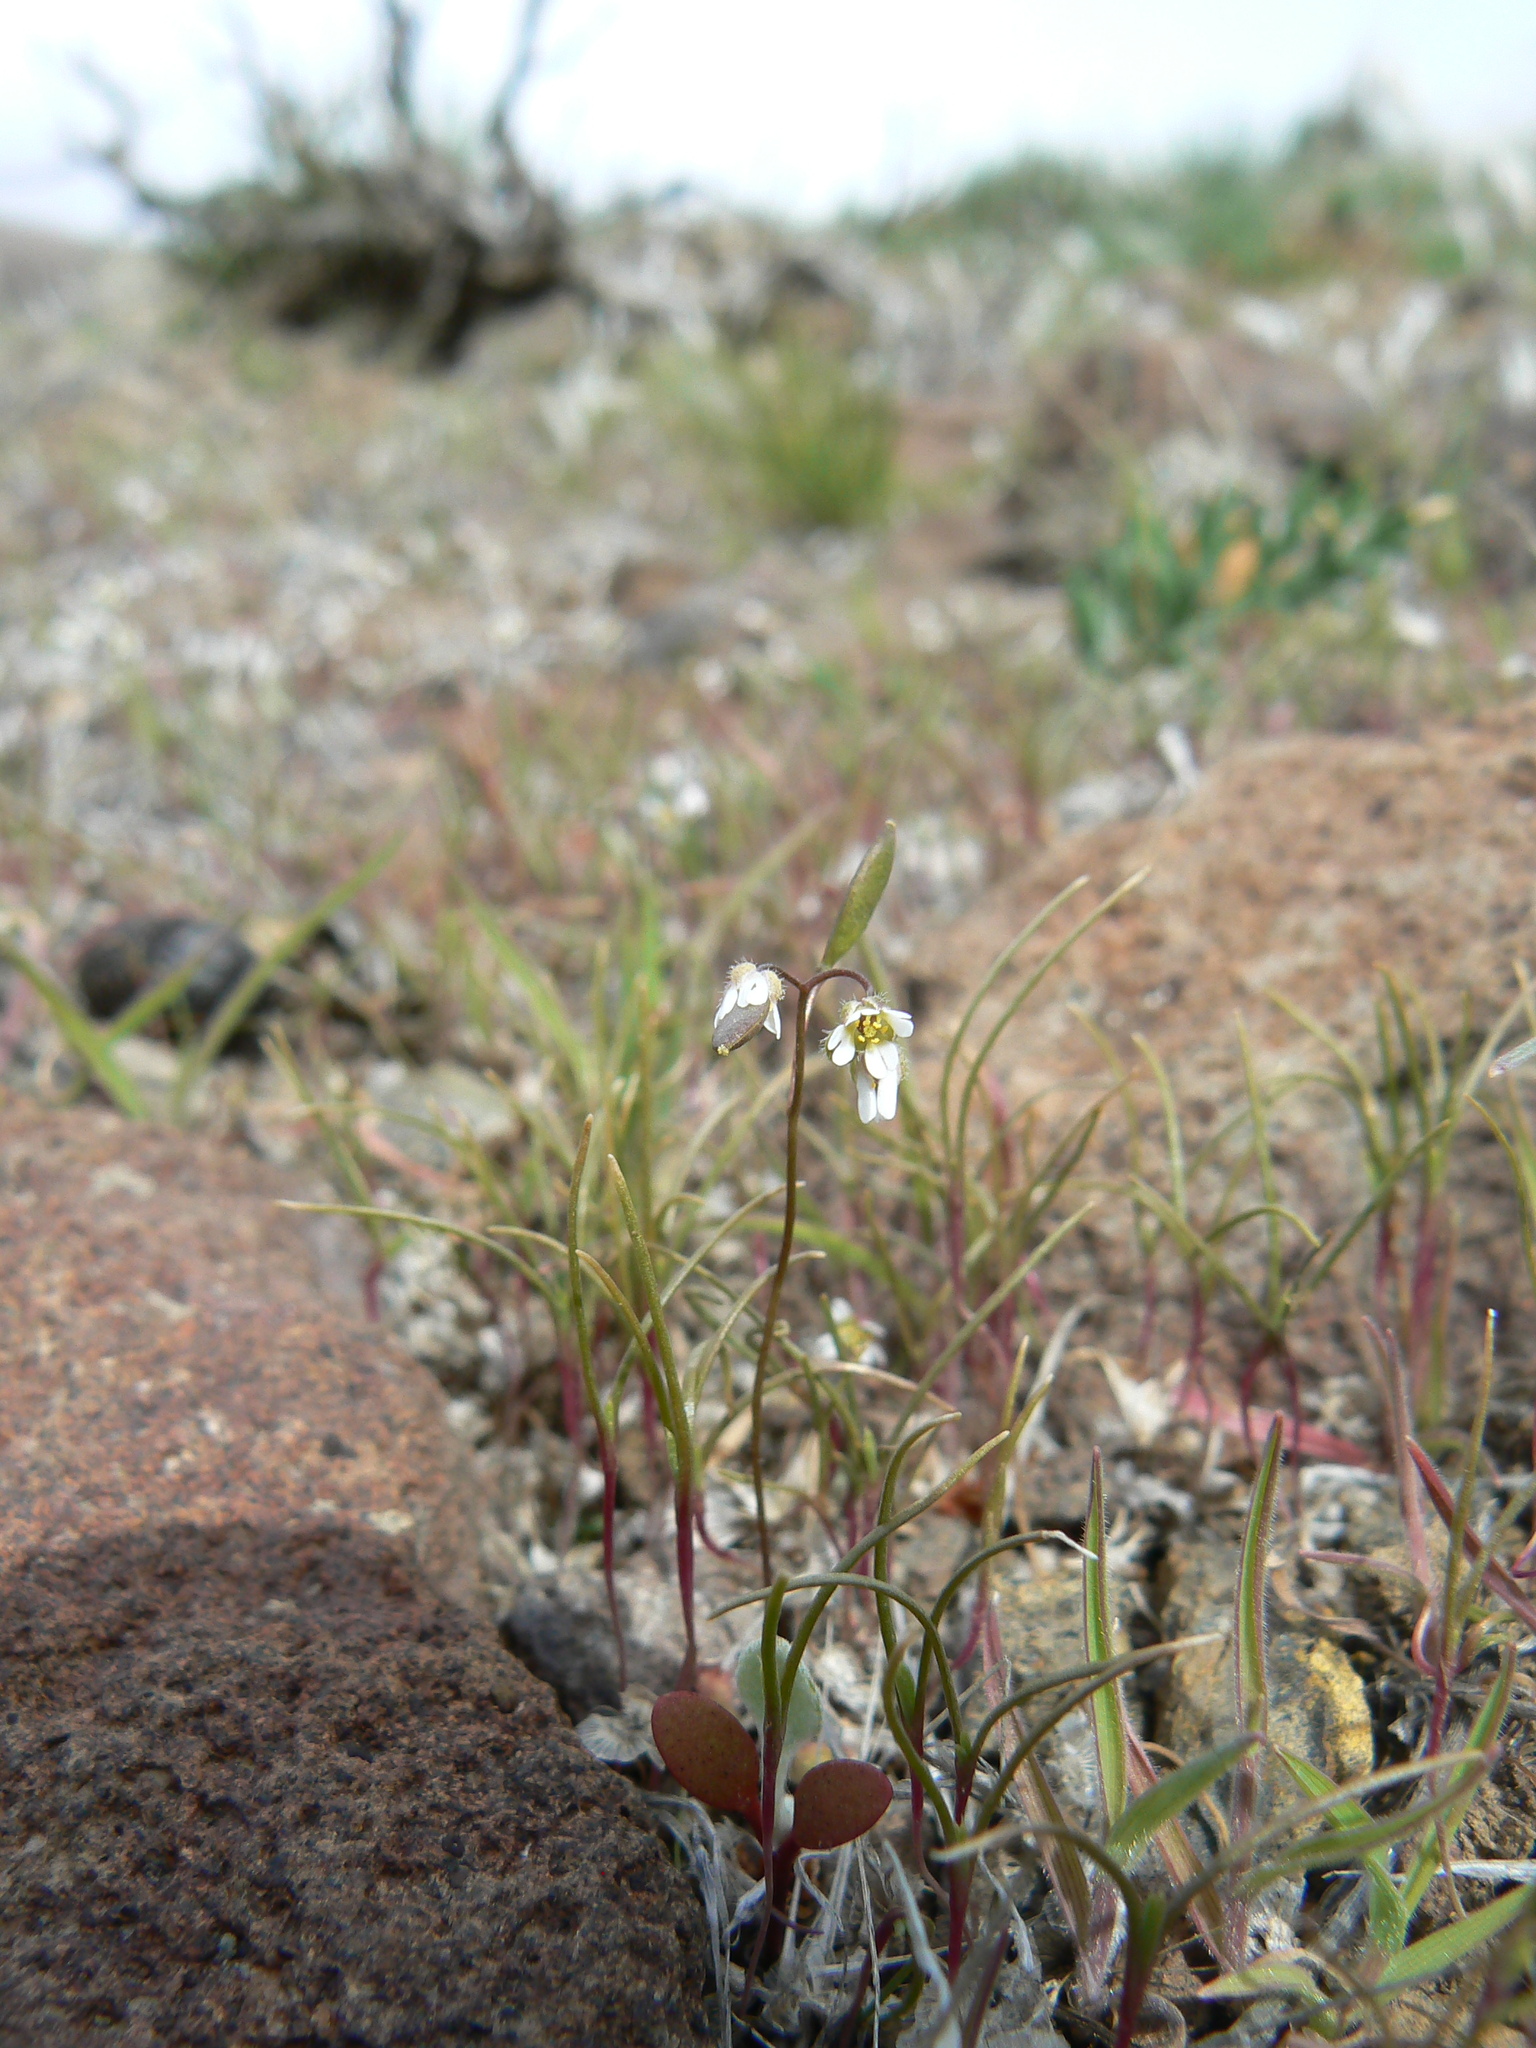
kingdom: Plantae
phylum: Tracheophyta
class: Magnoliopsida
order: Brassicales
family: Brassicaceae
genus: Draba
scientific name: Draba verna
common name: Spring draba
